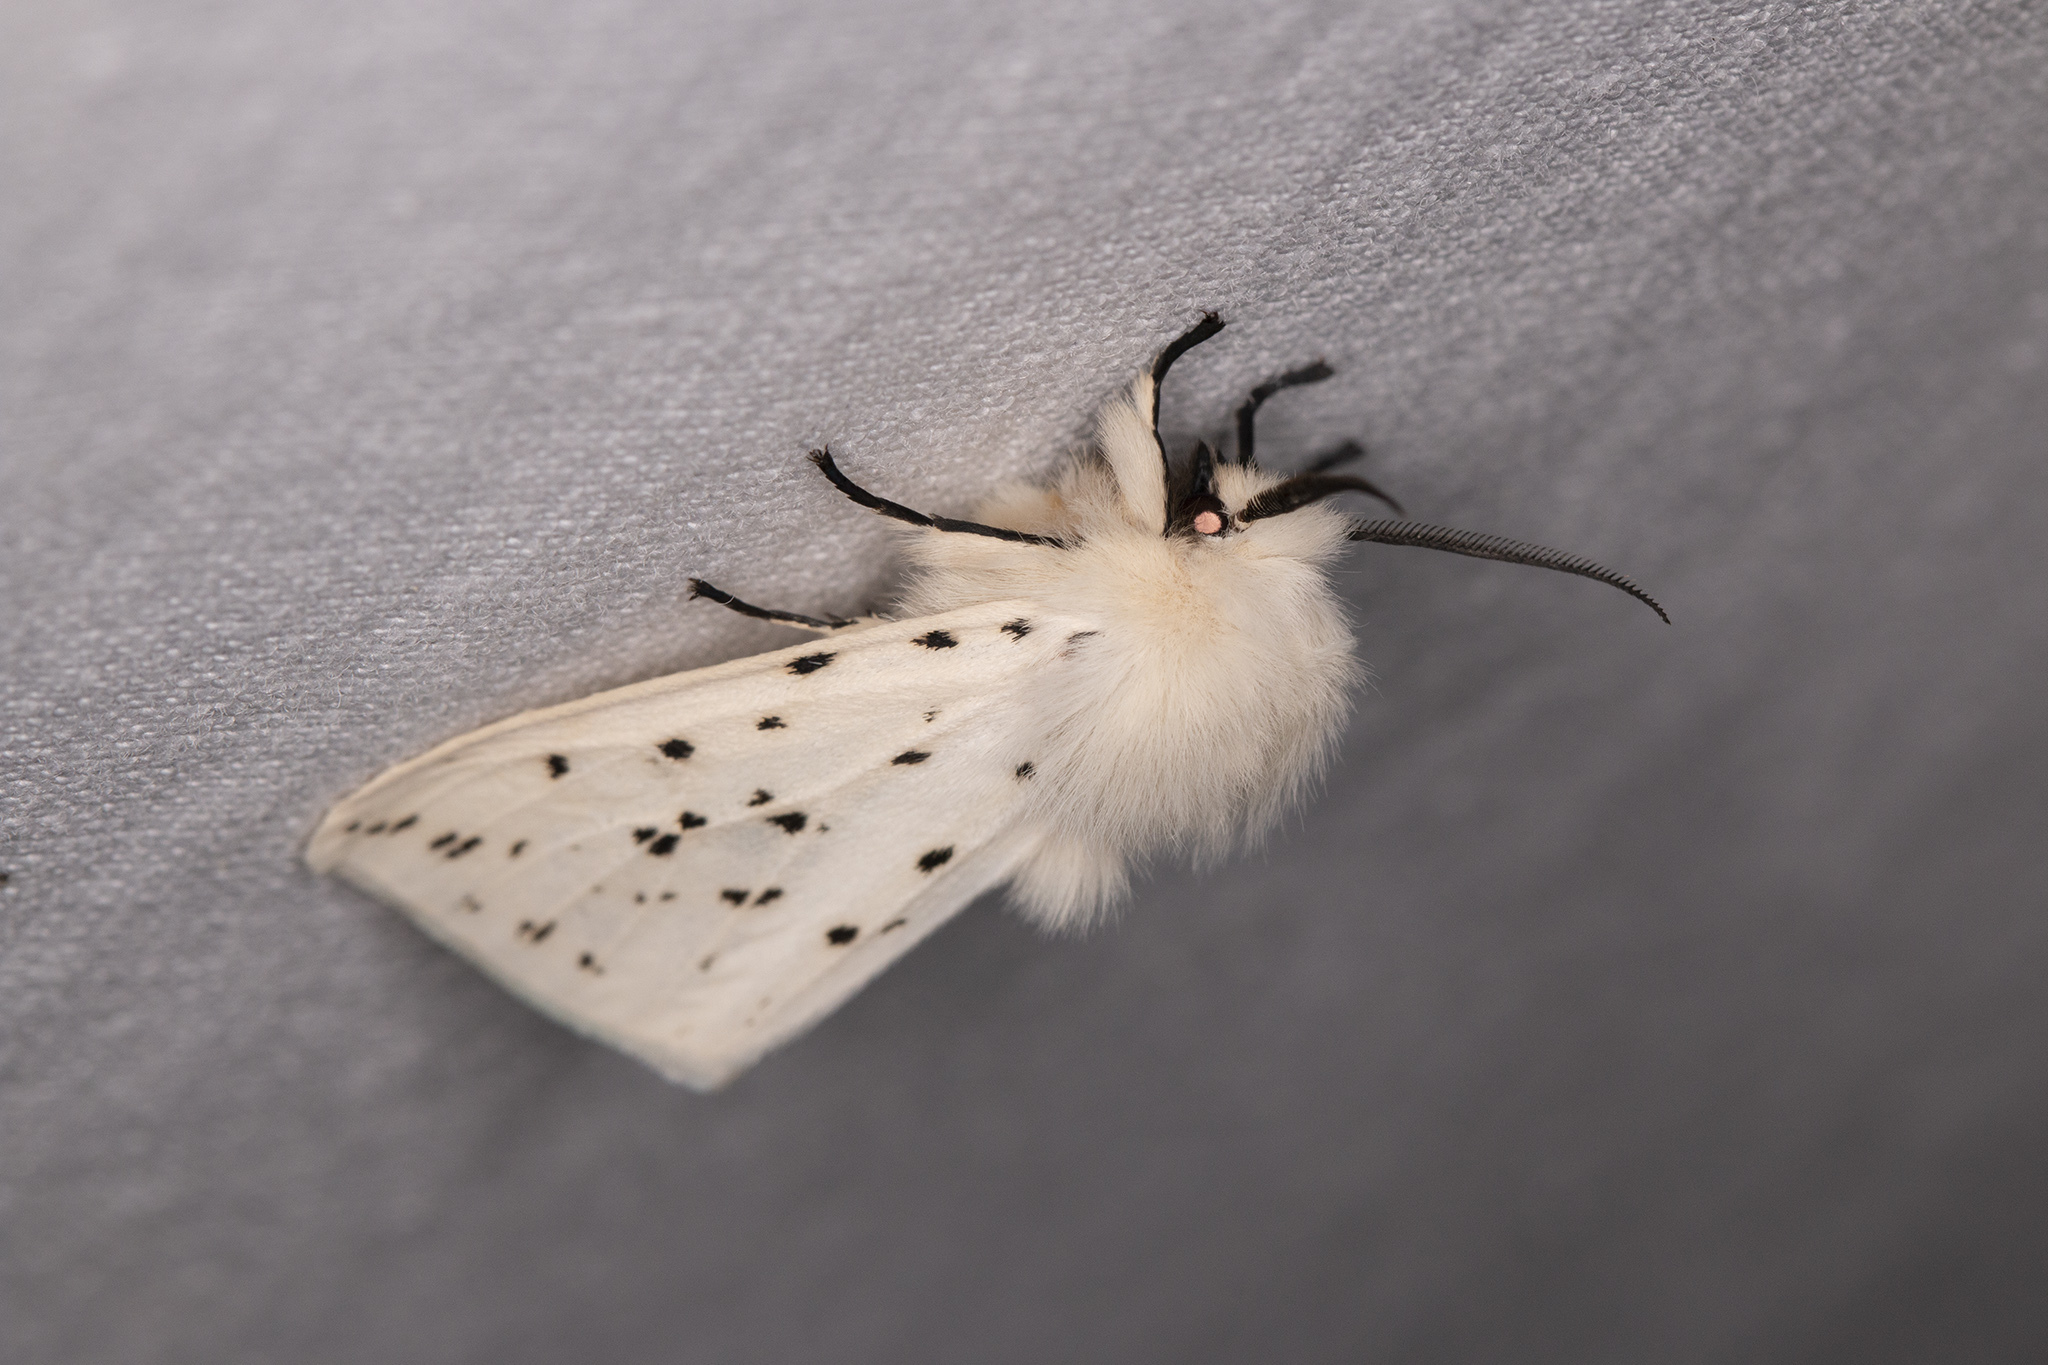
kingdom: Animalia
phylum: Arthropoda
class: Insecta
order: Lepidoptera
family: Erebidae
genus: Spilosoma
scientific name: Spilosoma lubricipeda
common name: White ermine
